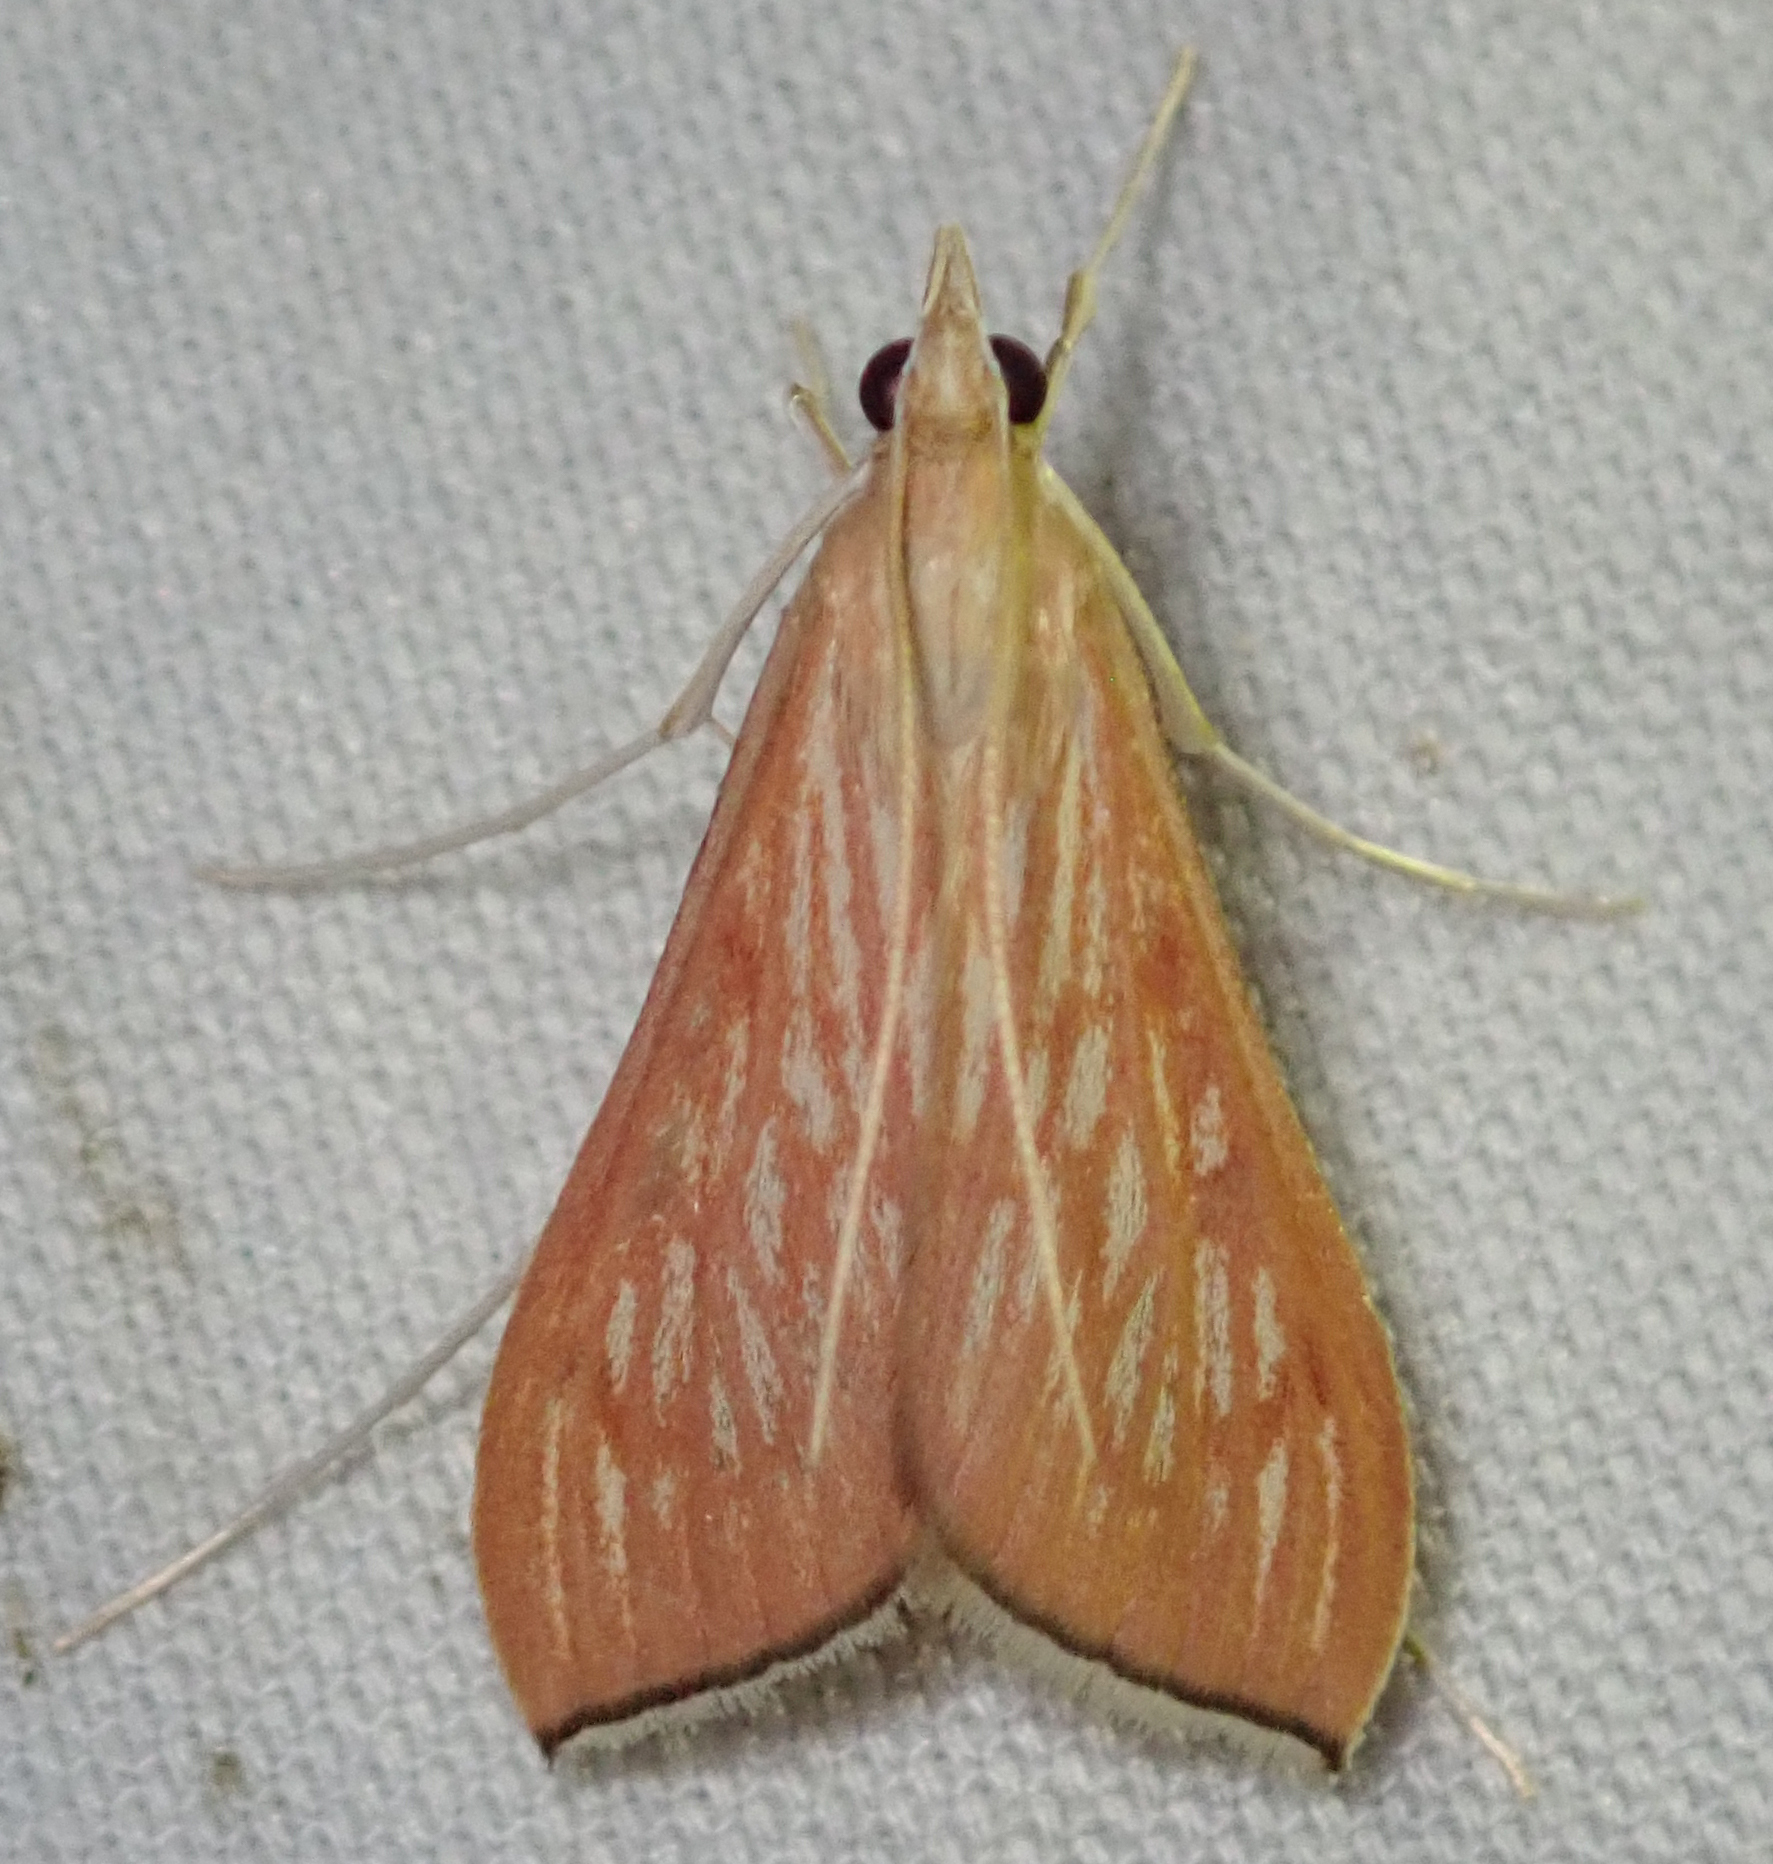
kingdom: Animalia
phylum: Arthropoda
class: Insecta
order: Lepidoptera
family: Crambidae
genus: Antigastra
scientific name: Antigastra catalaunalis
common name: Spanish dot
